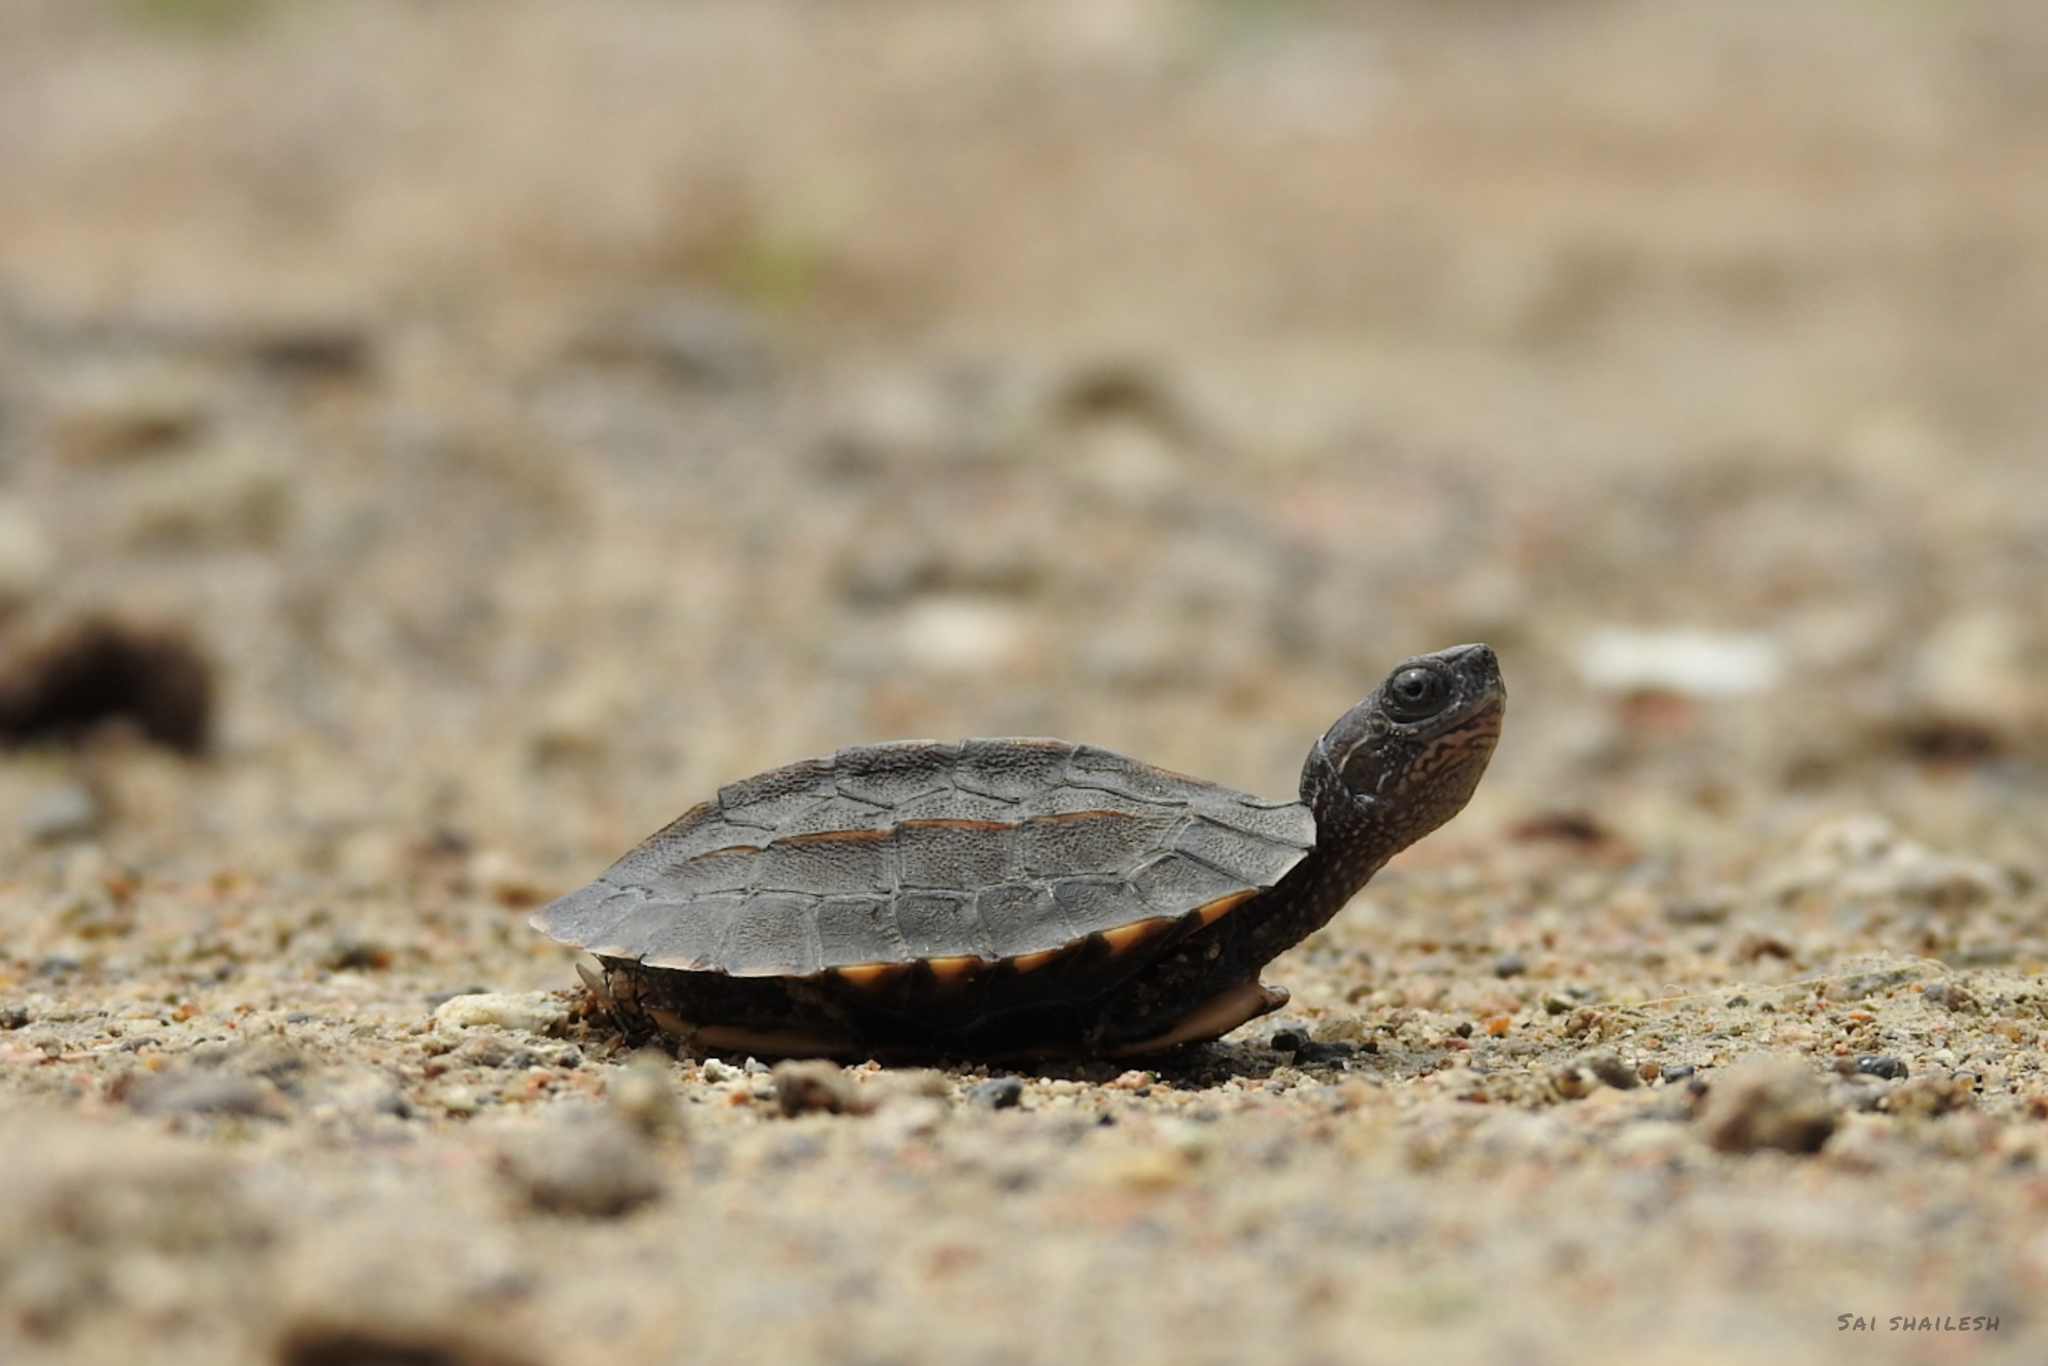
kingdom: Animalia
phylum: Chordata
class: Testudines
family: Geoemydidae
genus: Melanochelys
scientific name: Melanochelys trijuga
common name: Indian black turtle
